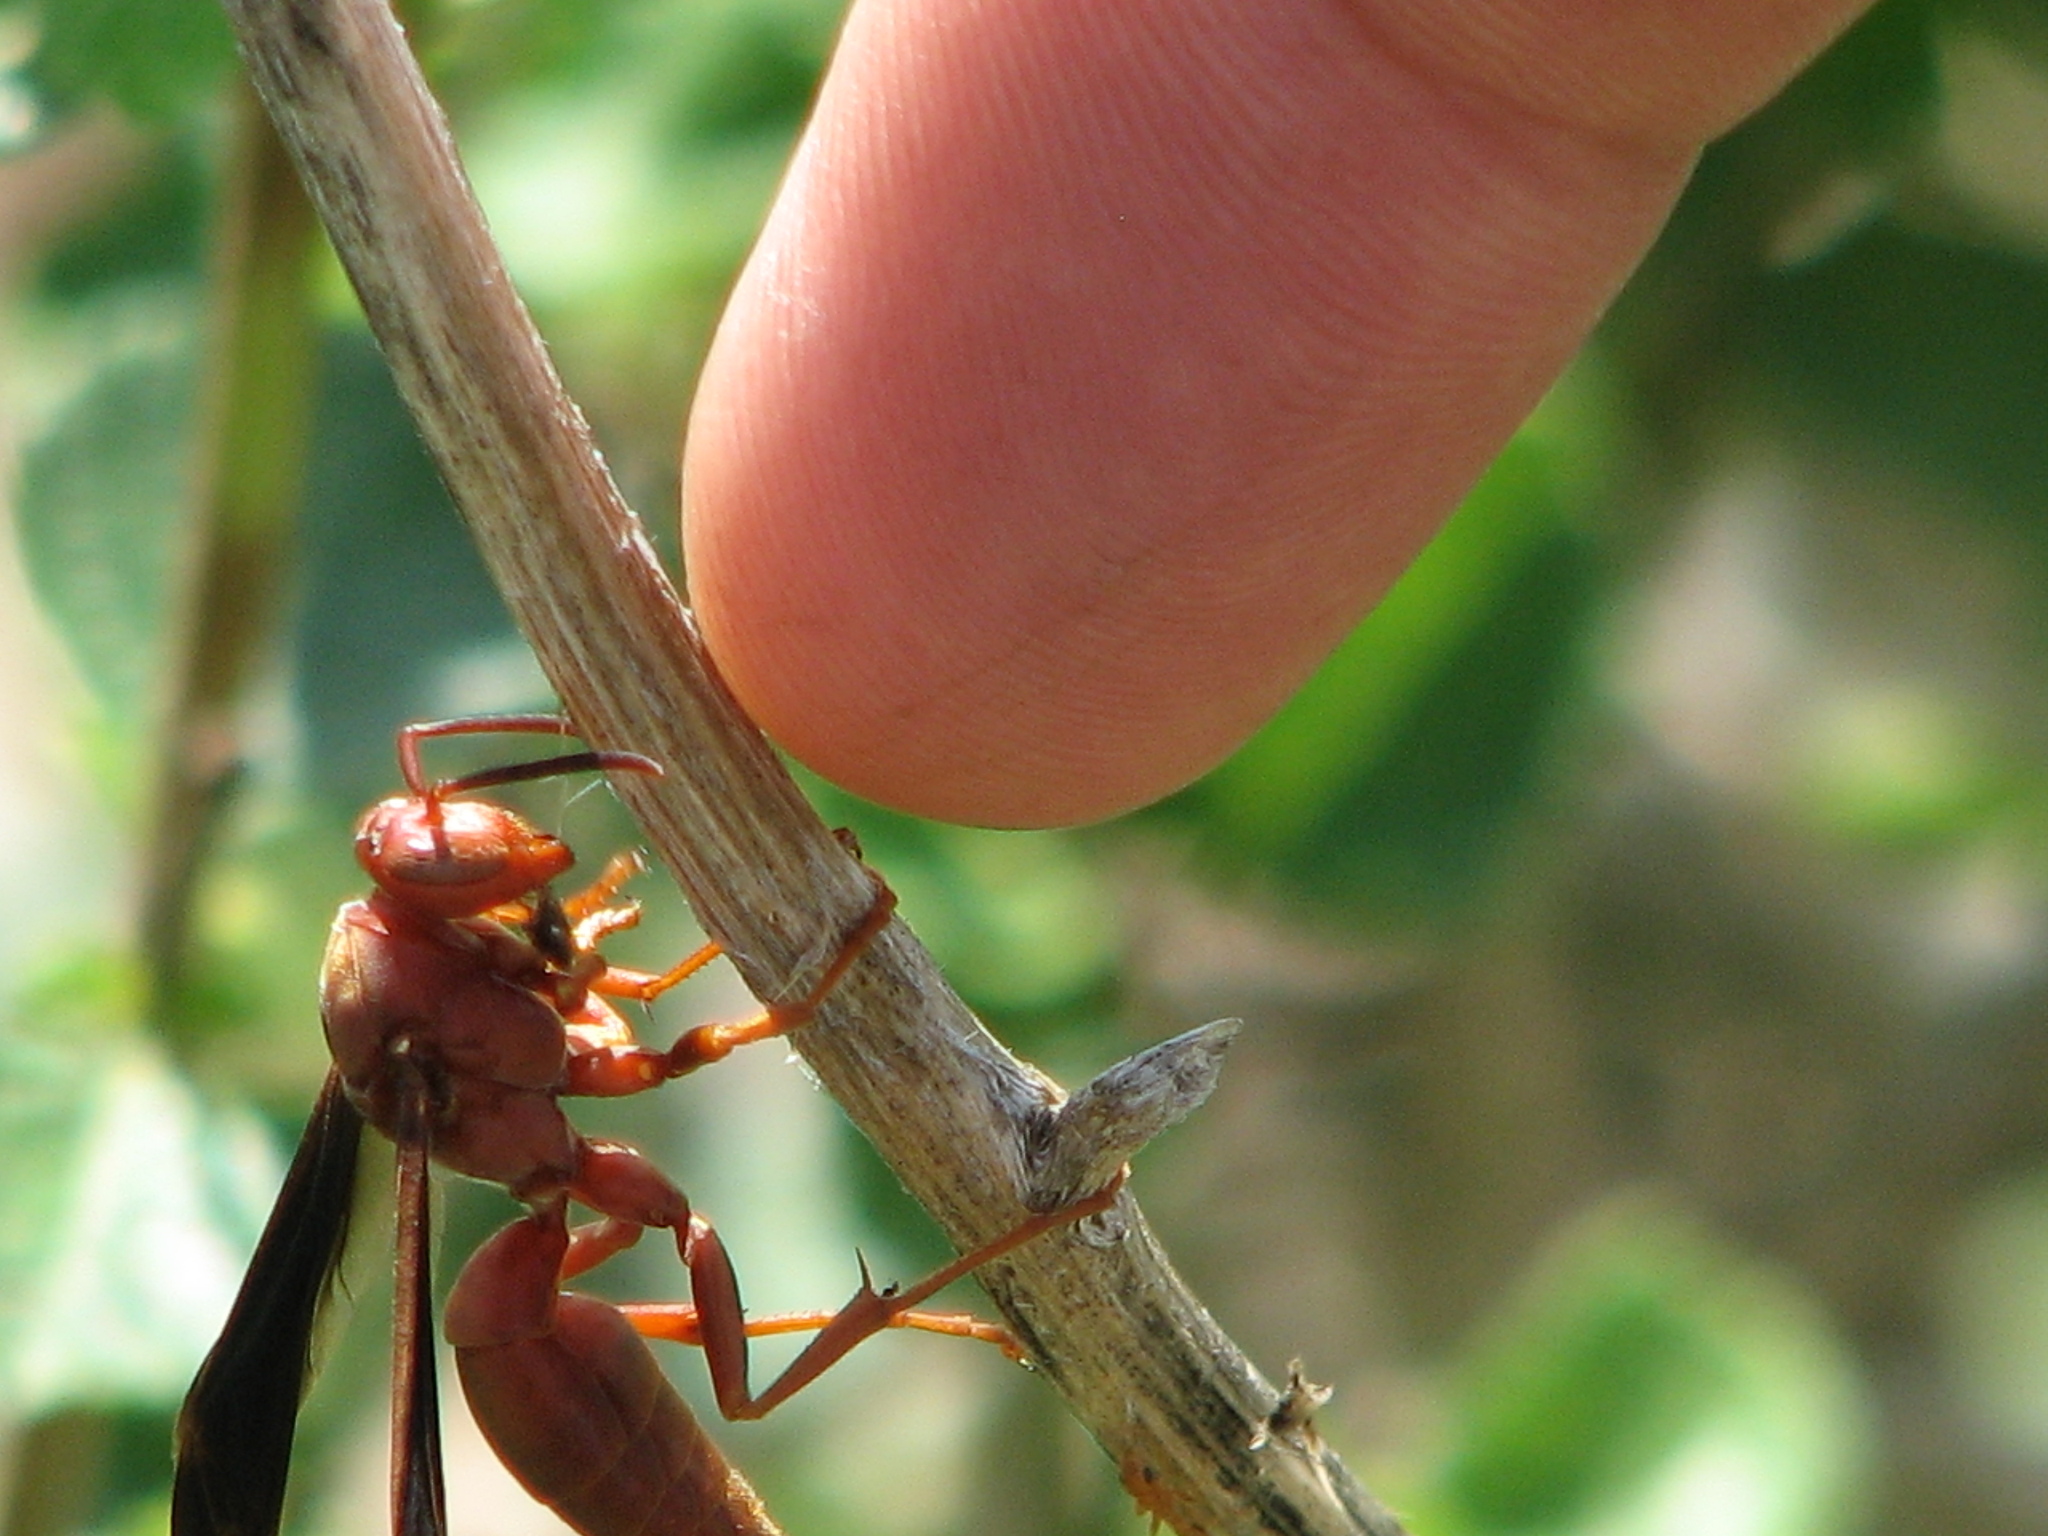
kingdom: Animalia
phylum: Arthropoda
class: Insecta
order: Hymenoptera
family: Eumenidae
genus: Polistes
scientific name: Polistes carolina
